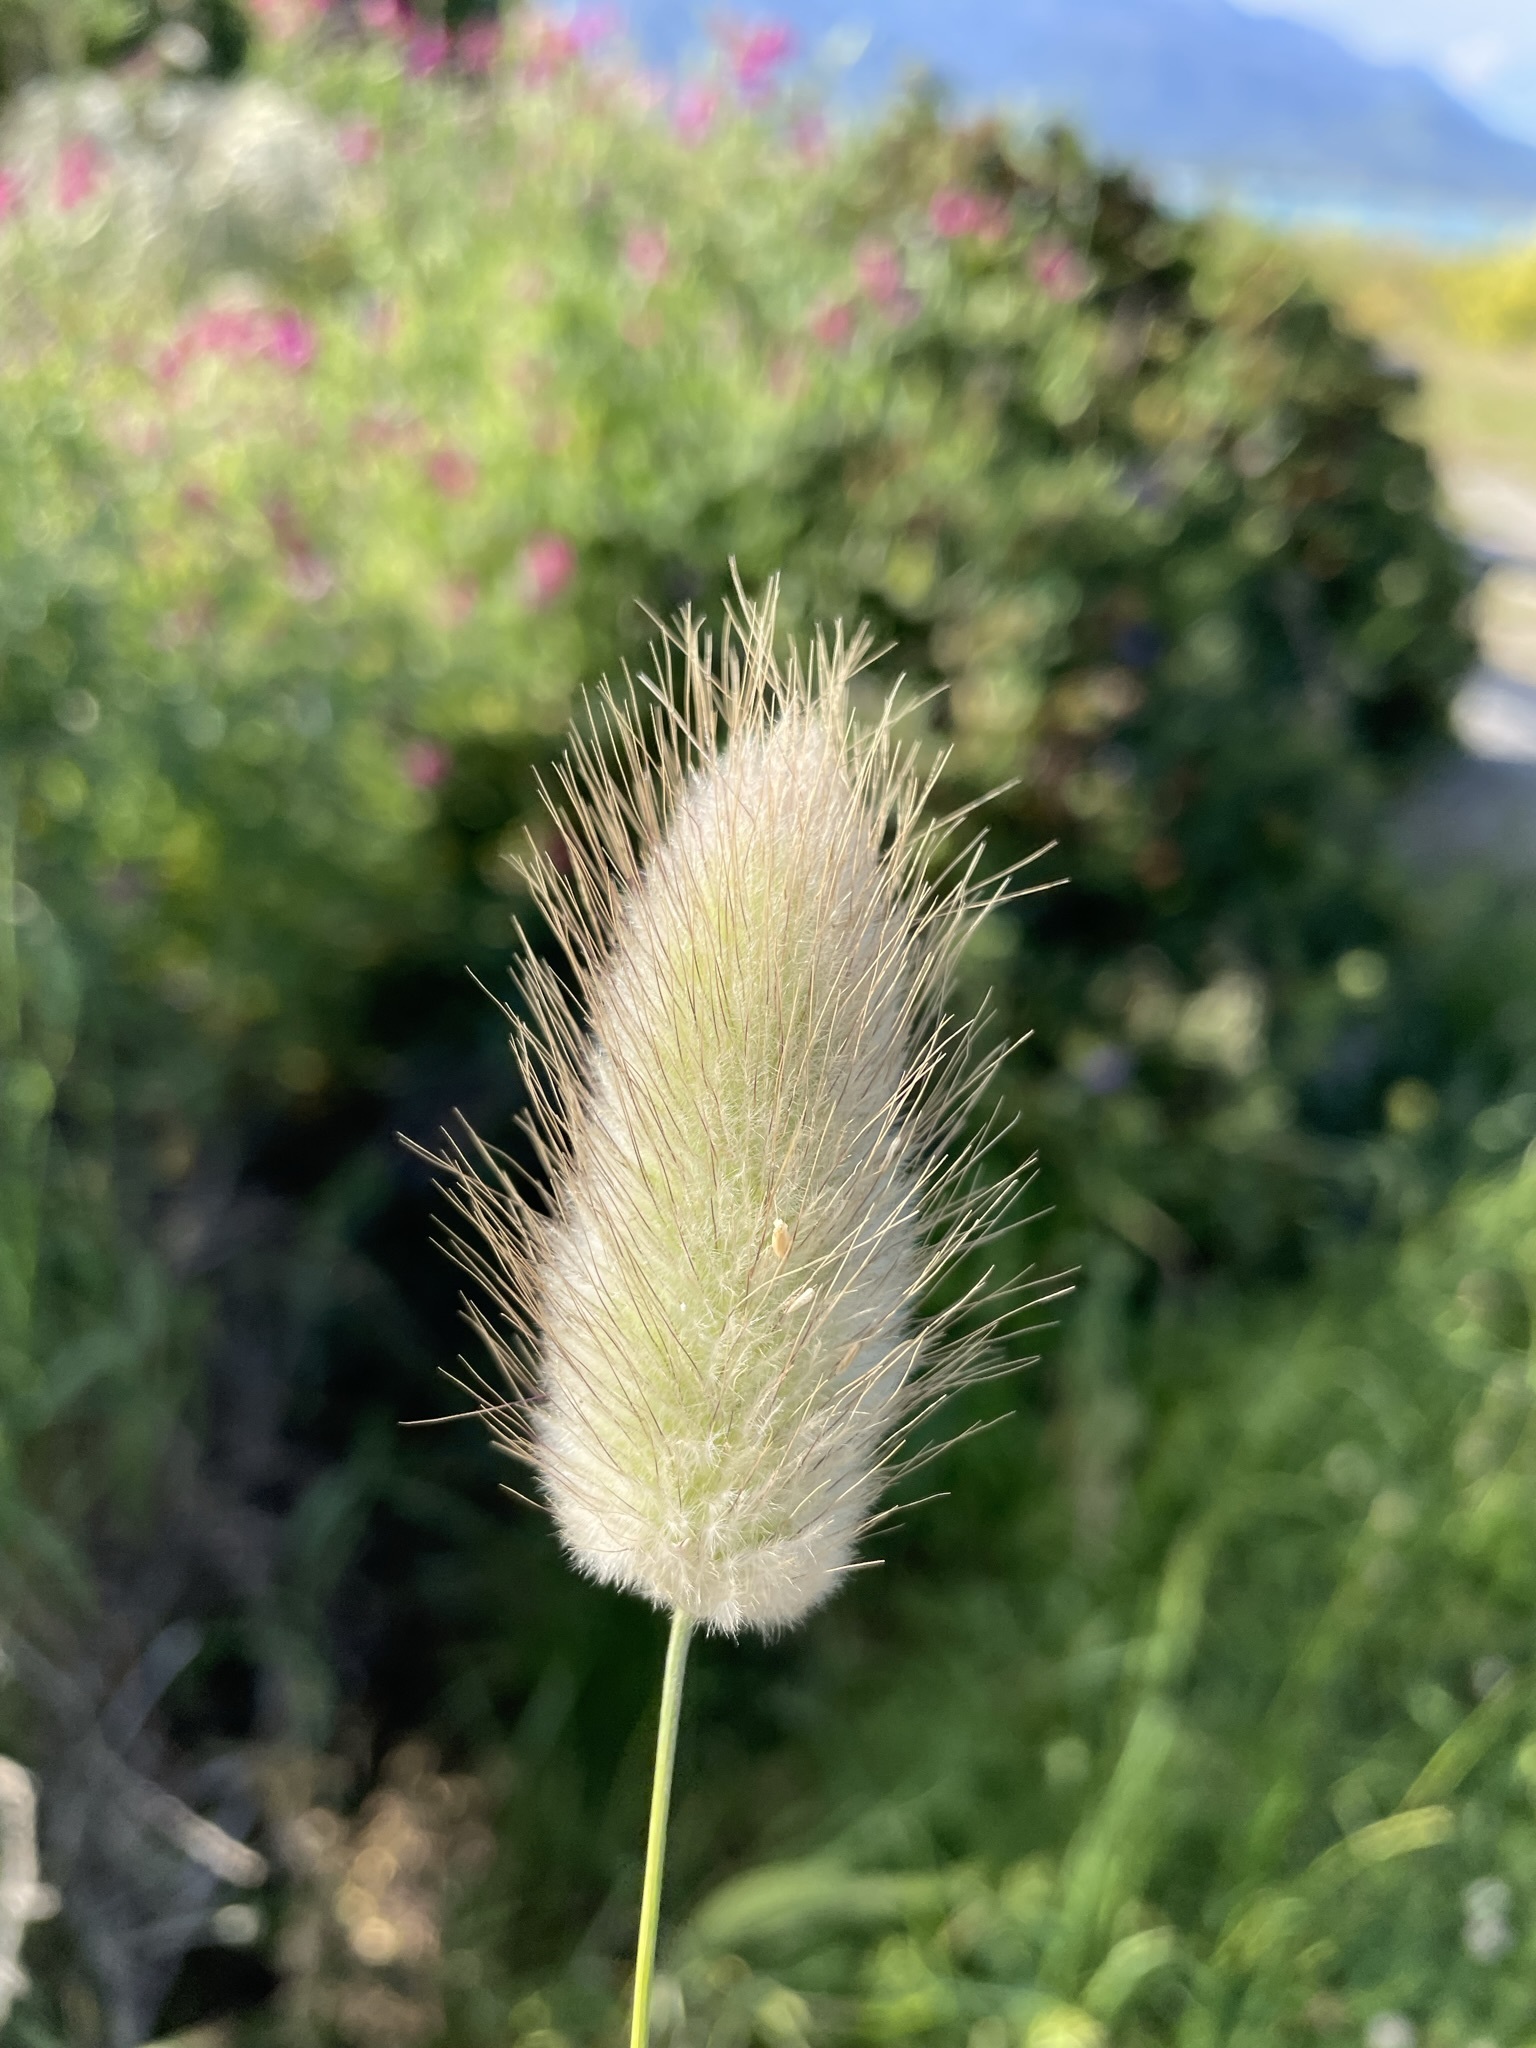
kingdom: Plantae
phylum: Tracheophyta
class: Liliopsida
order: Poales
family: Poaceae
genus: Lagurus
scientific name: Lagurus ovatus
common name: Hare's-tail
